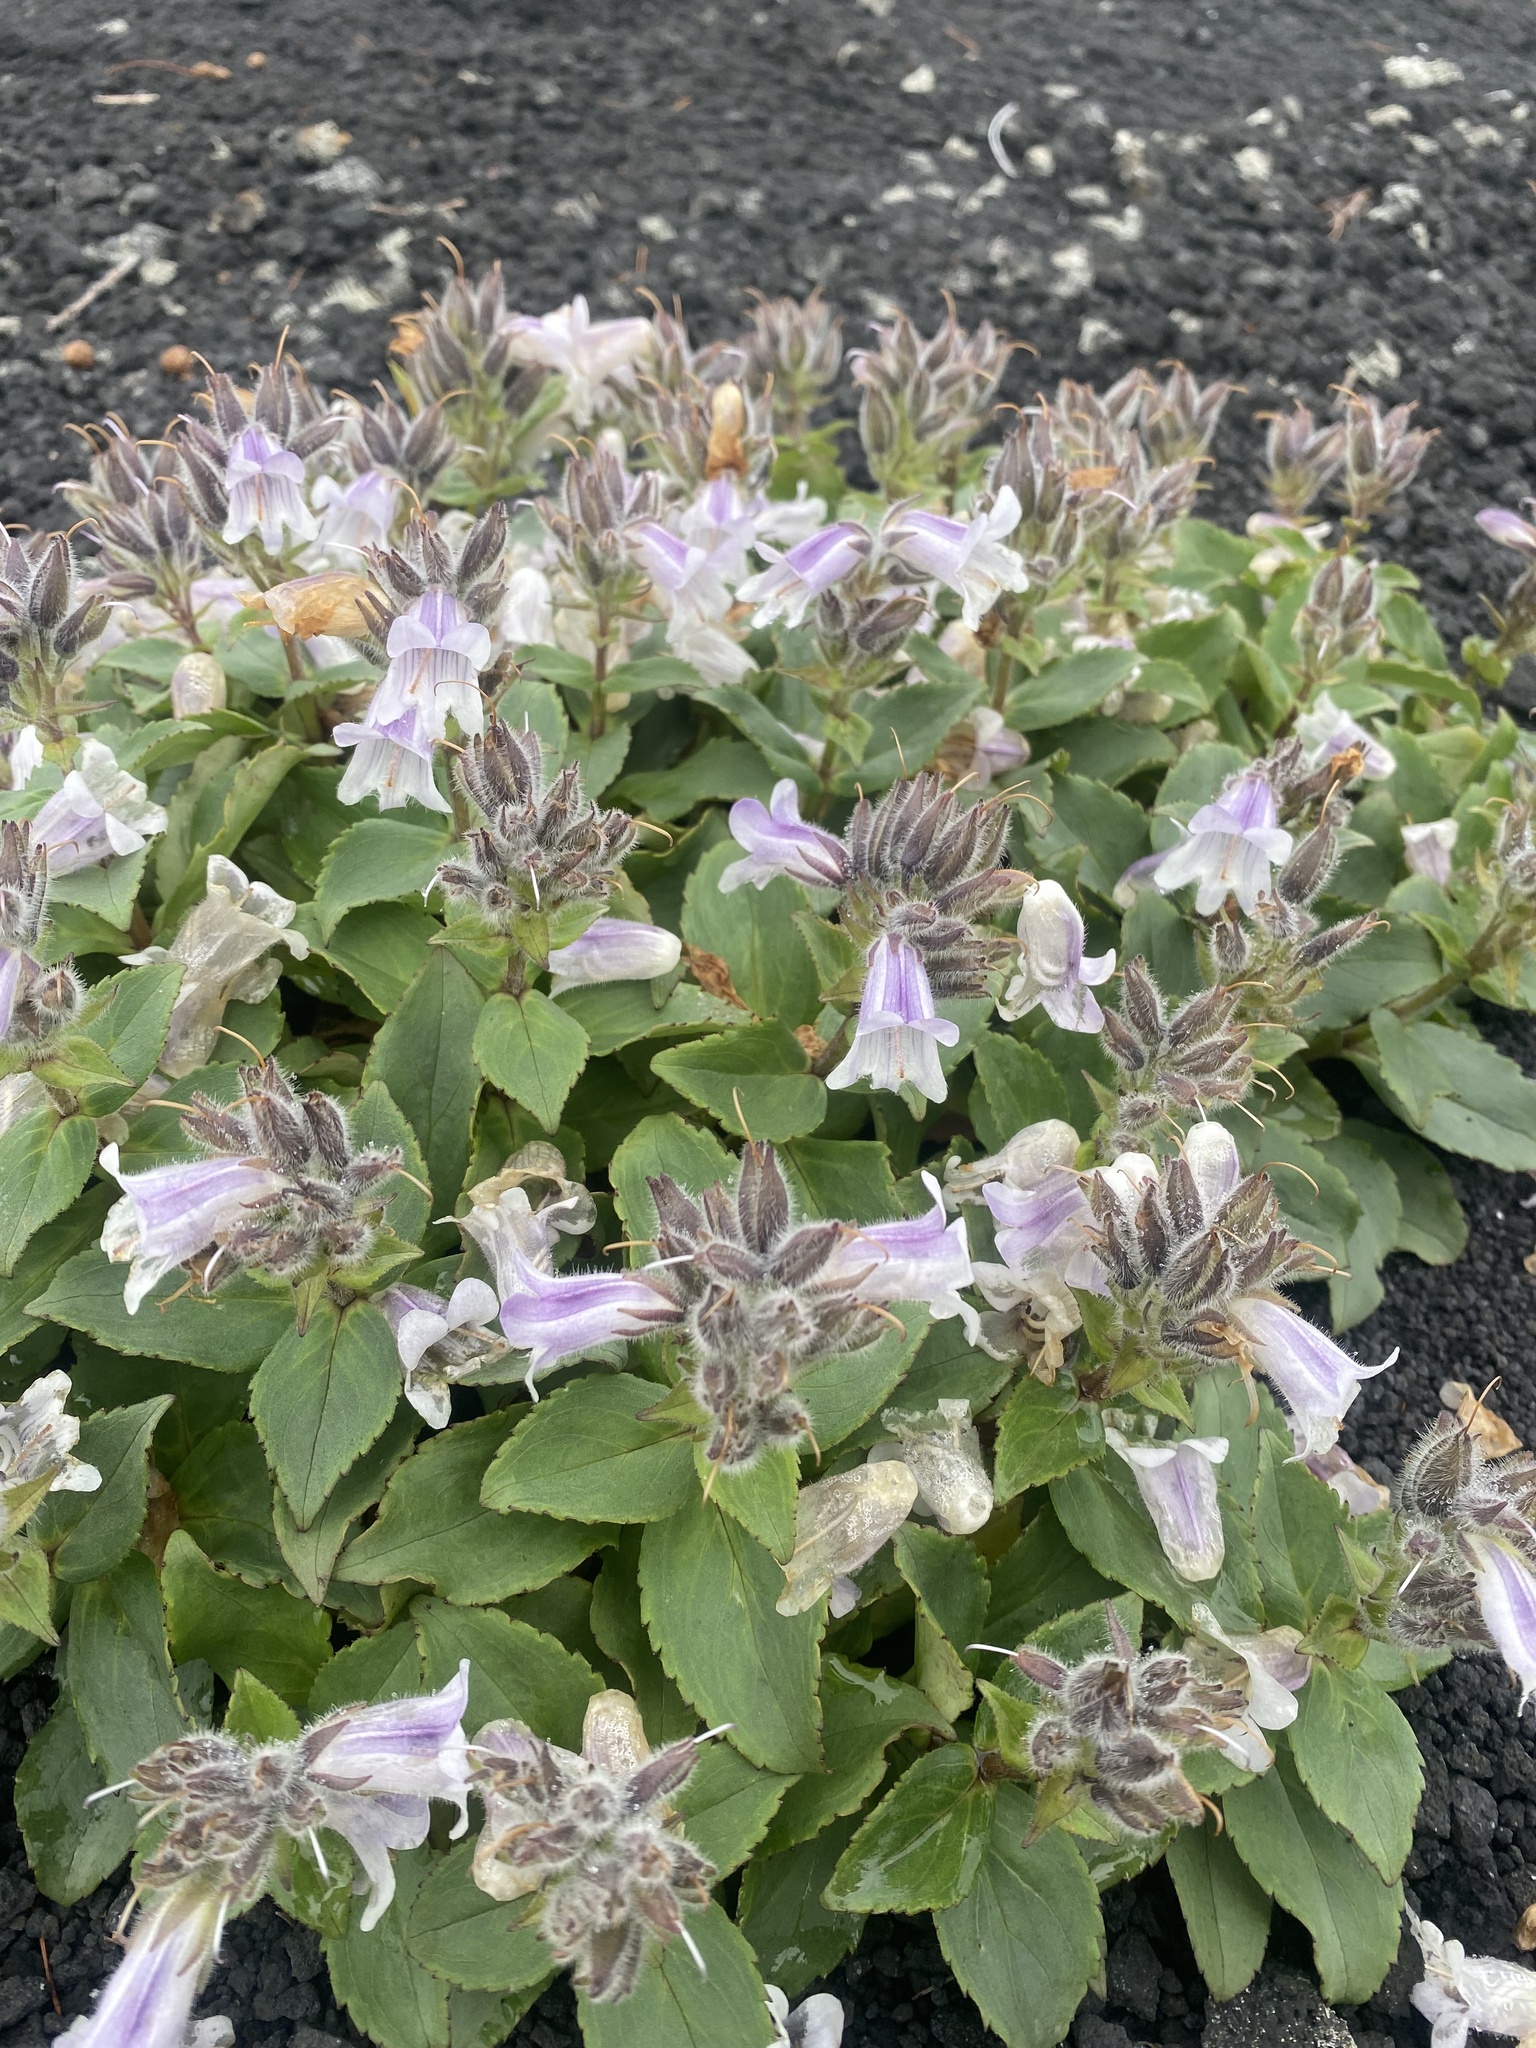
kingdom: Plantae
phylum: Tracheophyta
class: Magnoliopsida
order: Lamiales
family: Plantaginaceae
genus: Pennellianthus
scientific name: Pennellianthus frutescens
